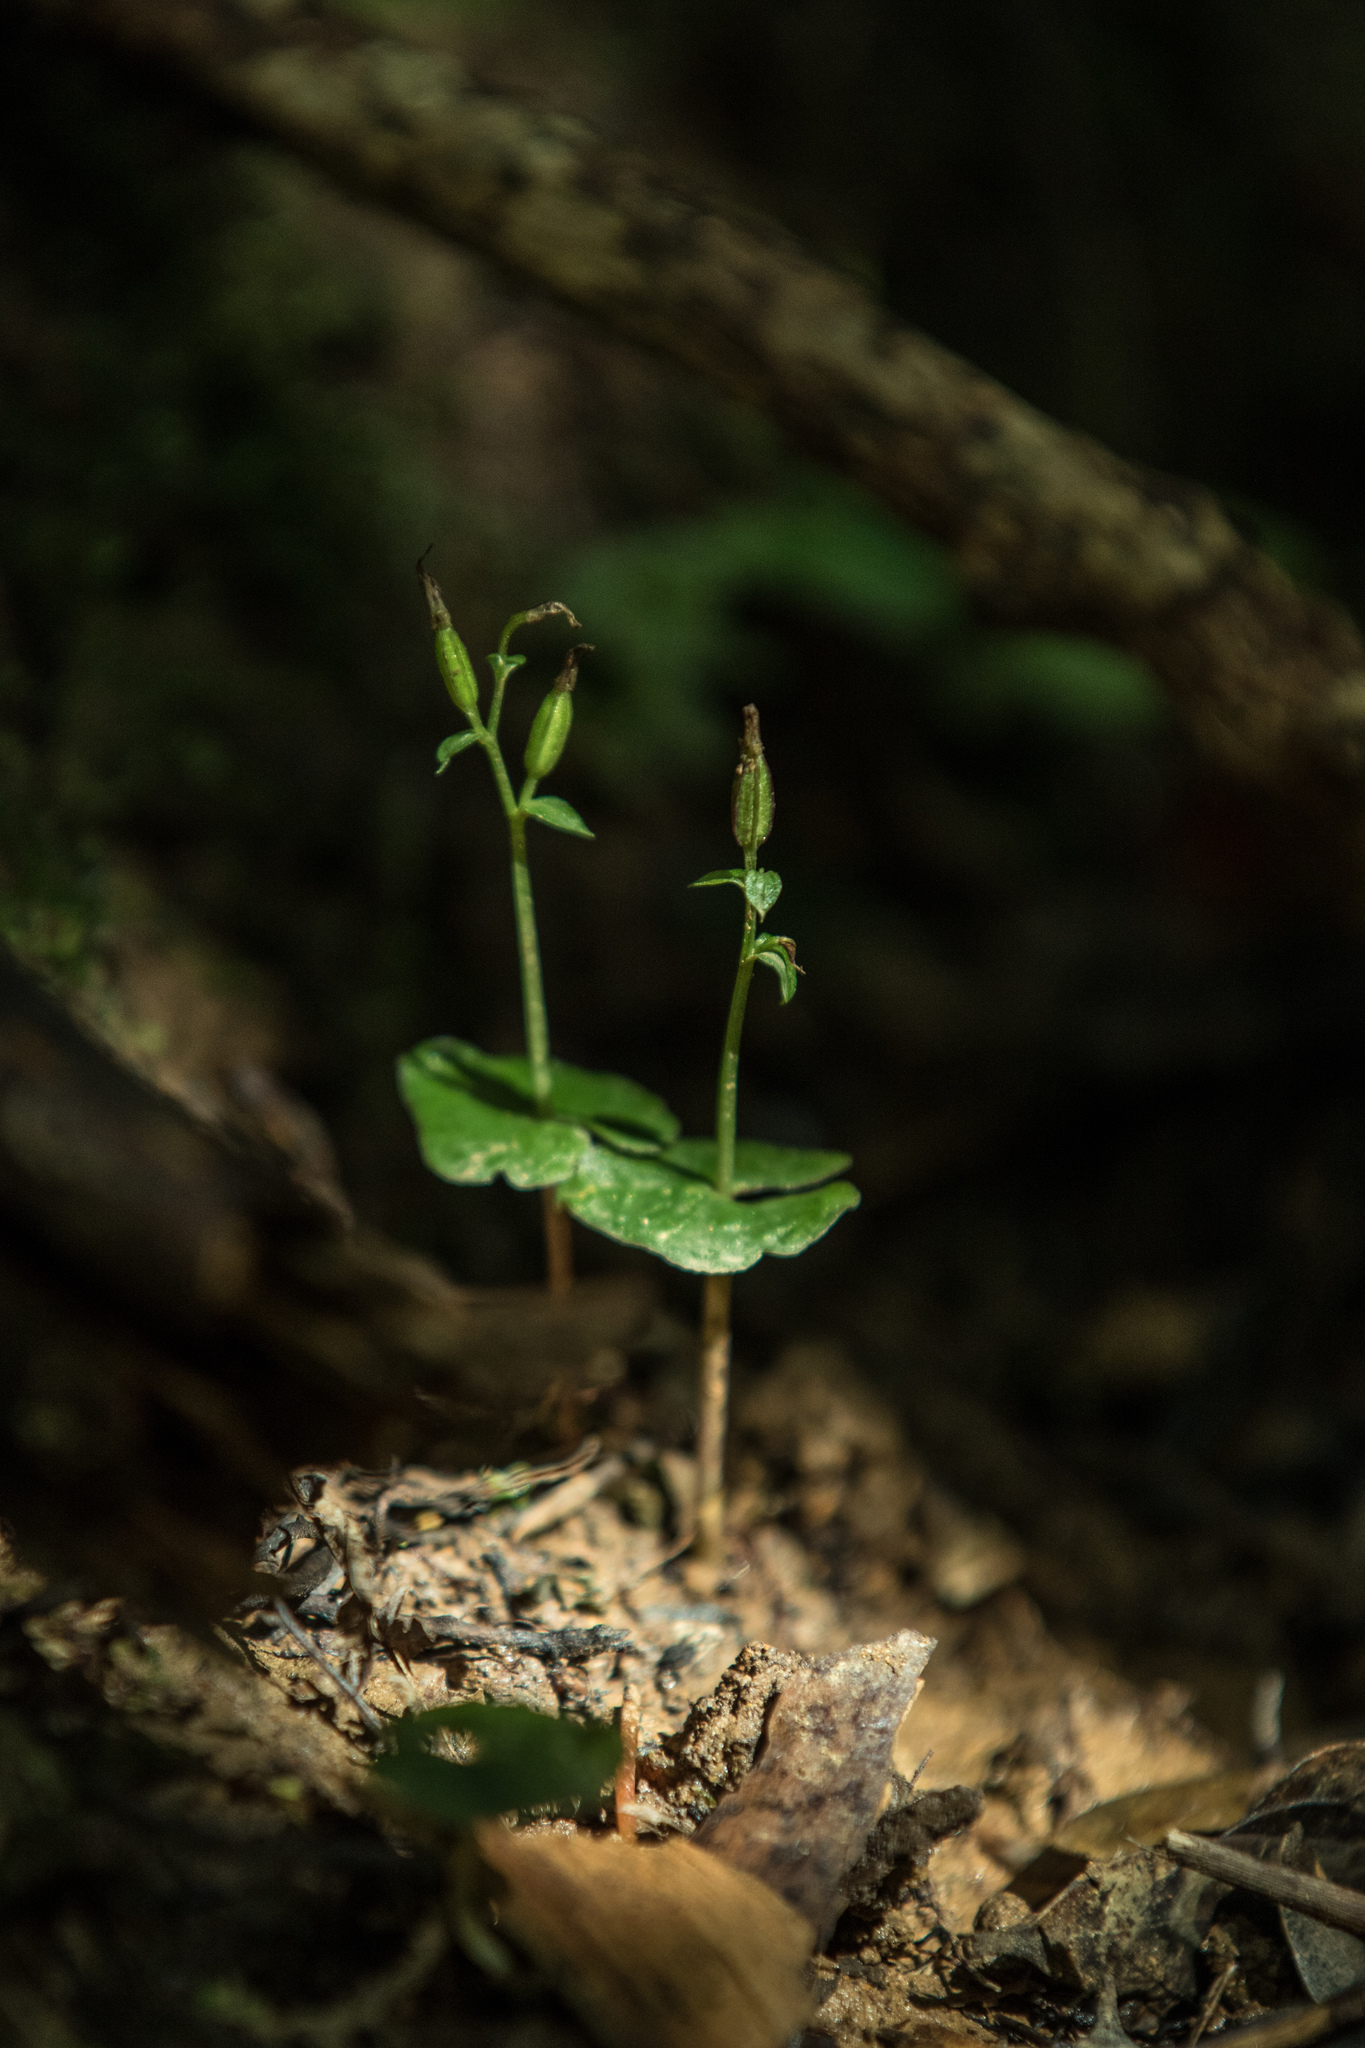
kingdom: Plantae
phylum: Tracheophyta
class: Liliopsida
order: Asparagales
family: Orchidaceae
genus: Acianthus
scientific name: Acianthus sinclairii
